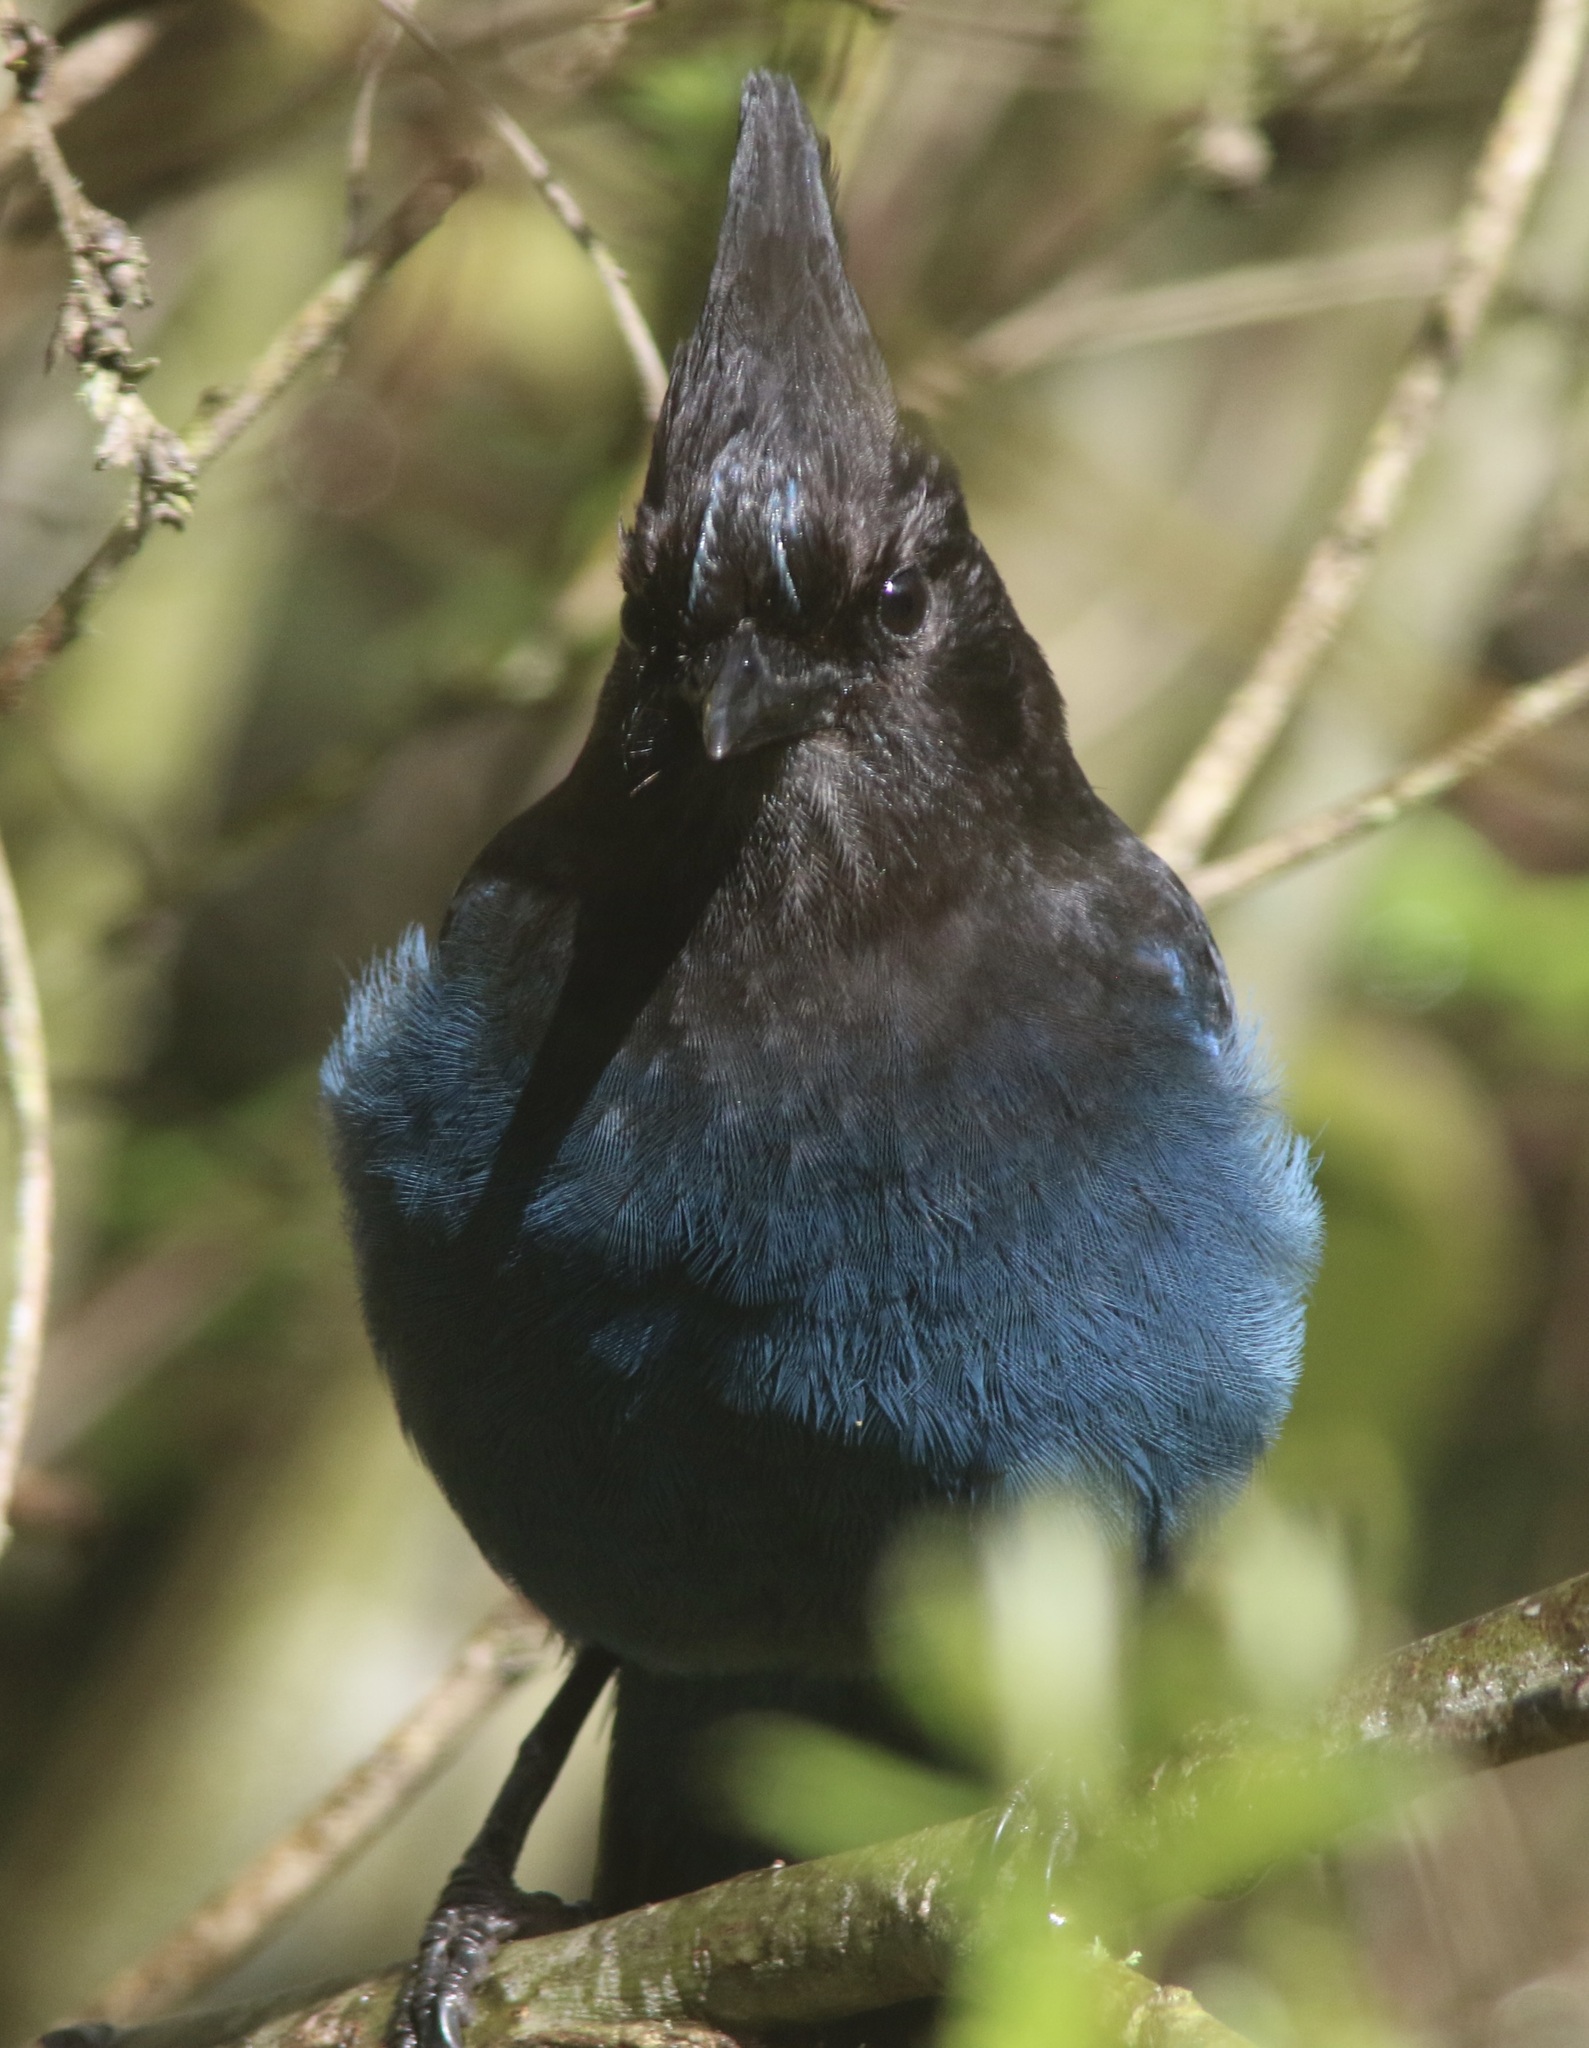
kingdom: Animalia
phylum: Chordata
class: Aves
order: Passeriformes
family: Corvidae
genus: Cyanocitta
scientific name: Cyanocitta stelleri
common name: Steller's jay
